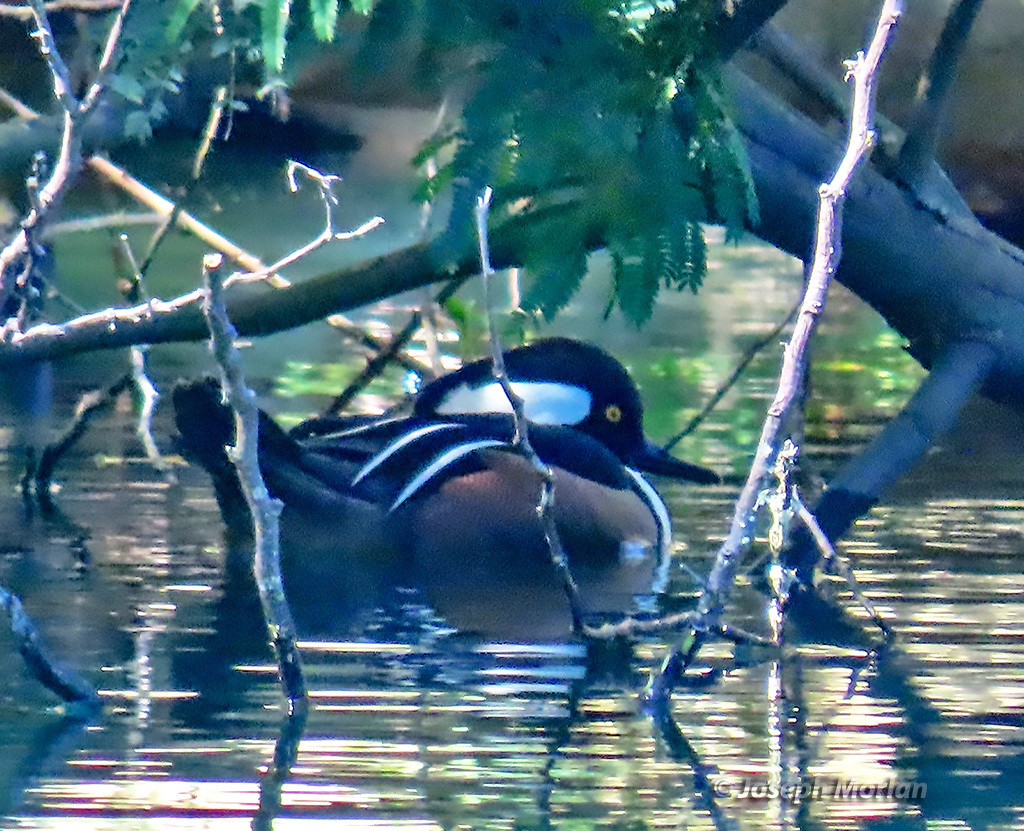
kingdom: Animalia
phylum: Chordata
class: Aves
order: Anseriformes
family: Anatidae
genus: Lophodytes
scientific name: Lophodytes cucullatus
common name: Hooded merganser
